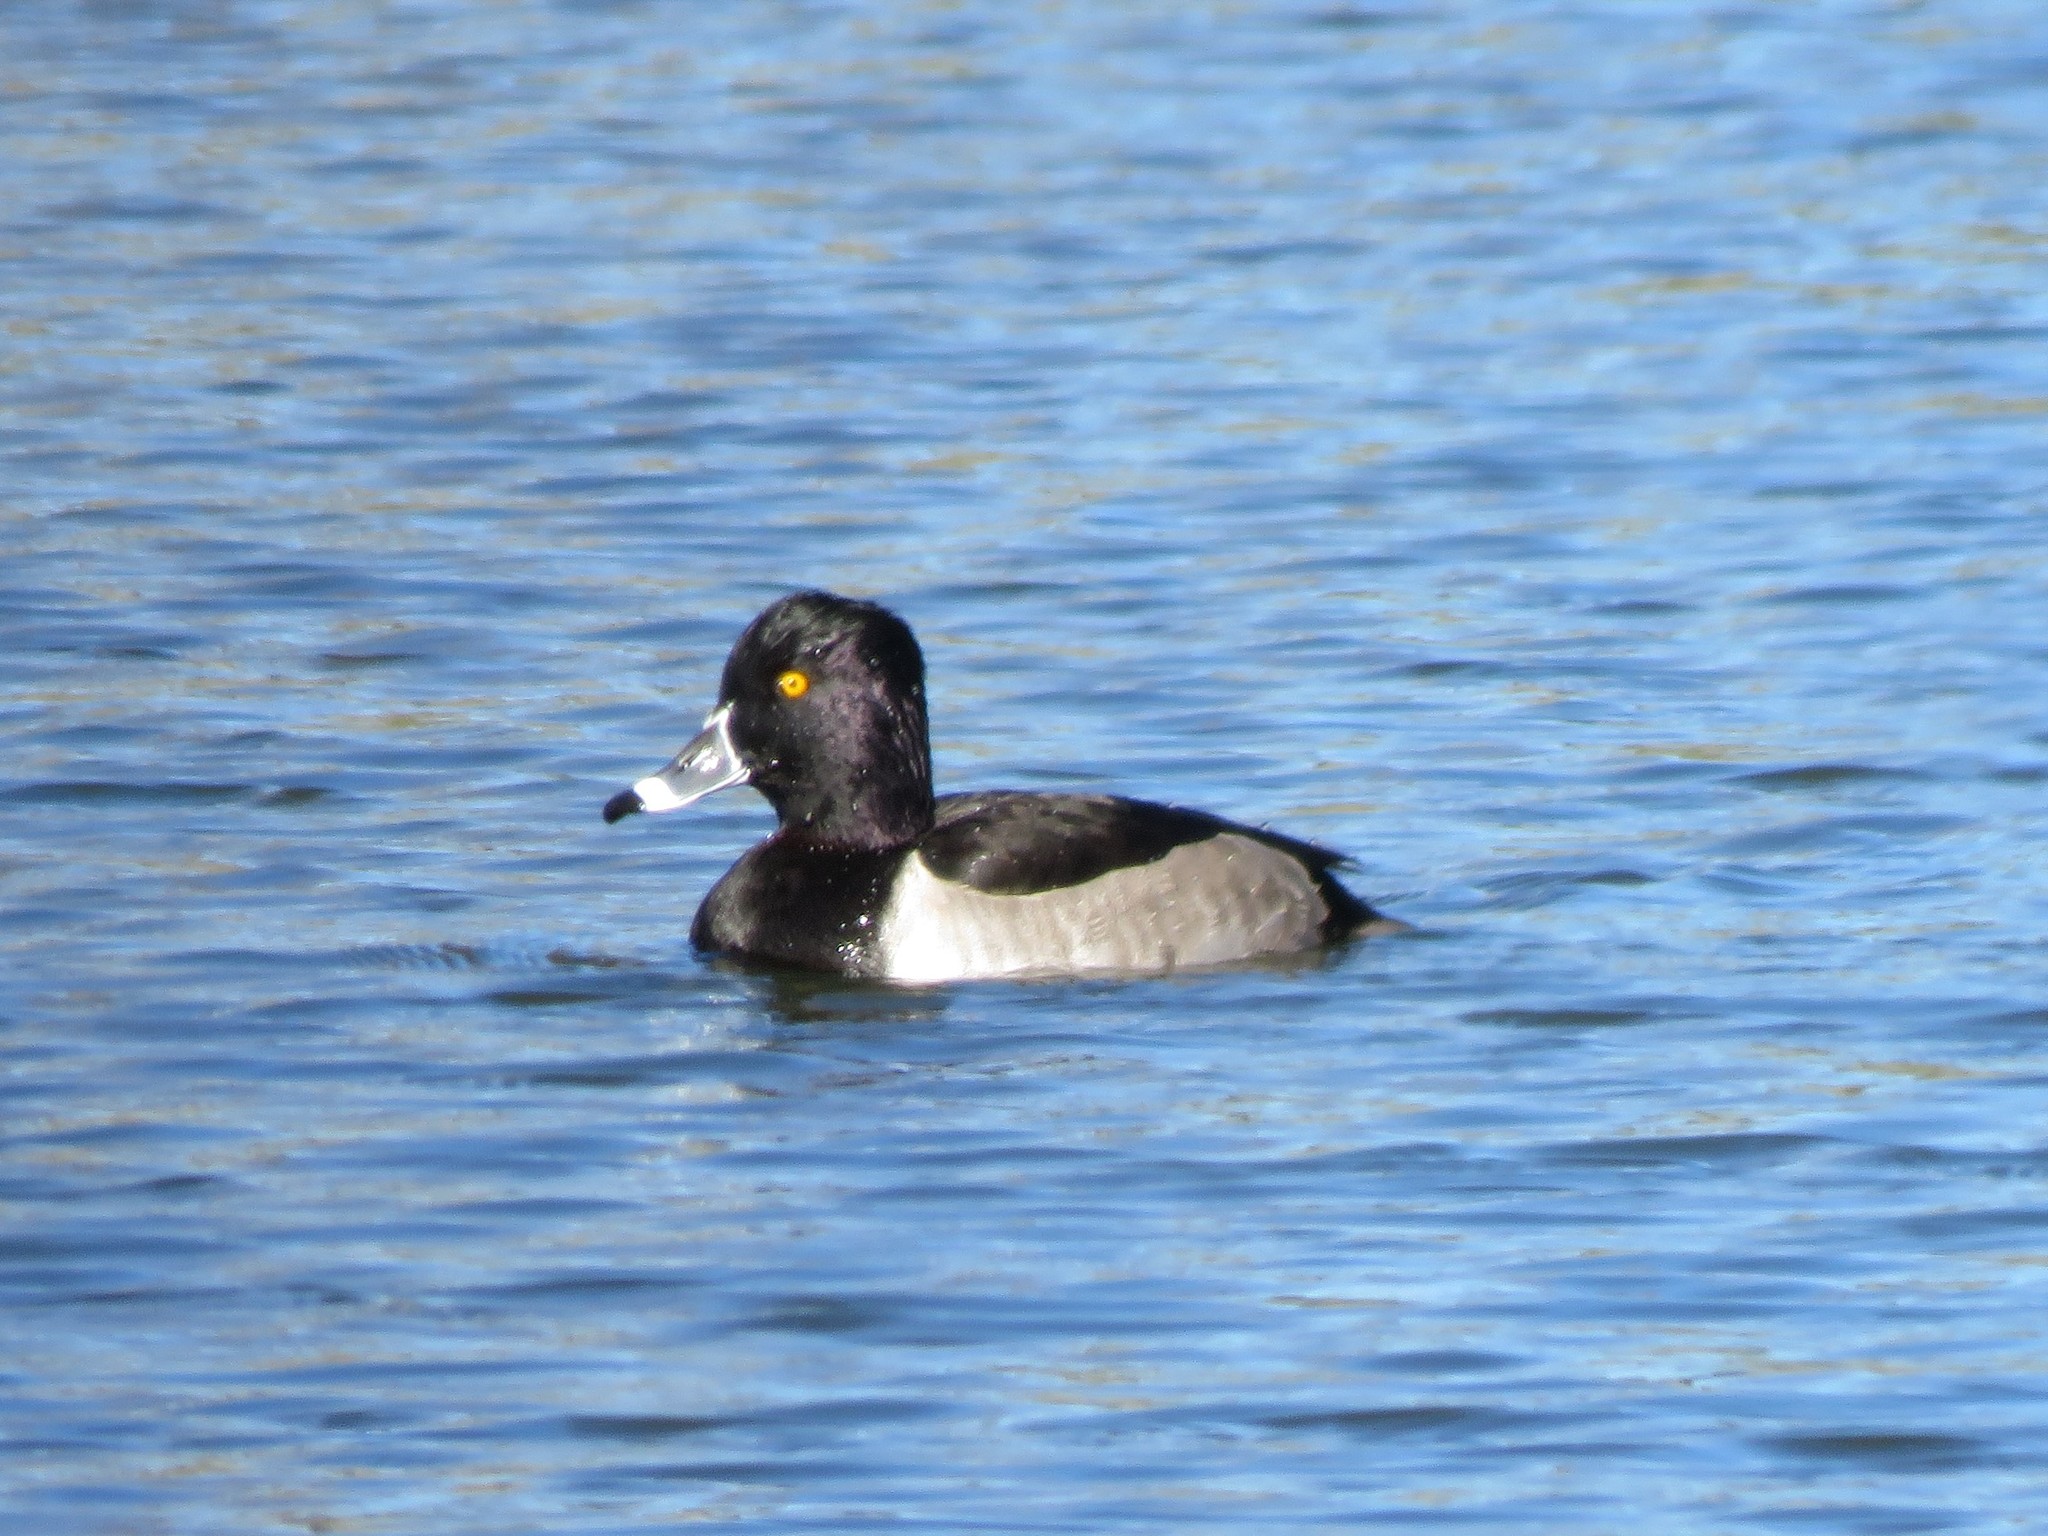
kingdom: Animalia
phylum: Chordata
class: Aves
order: Anseriformes
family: Anatidae
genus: Aythya
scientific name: Aythya collaris
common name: Ring-necked duck
